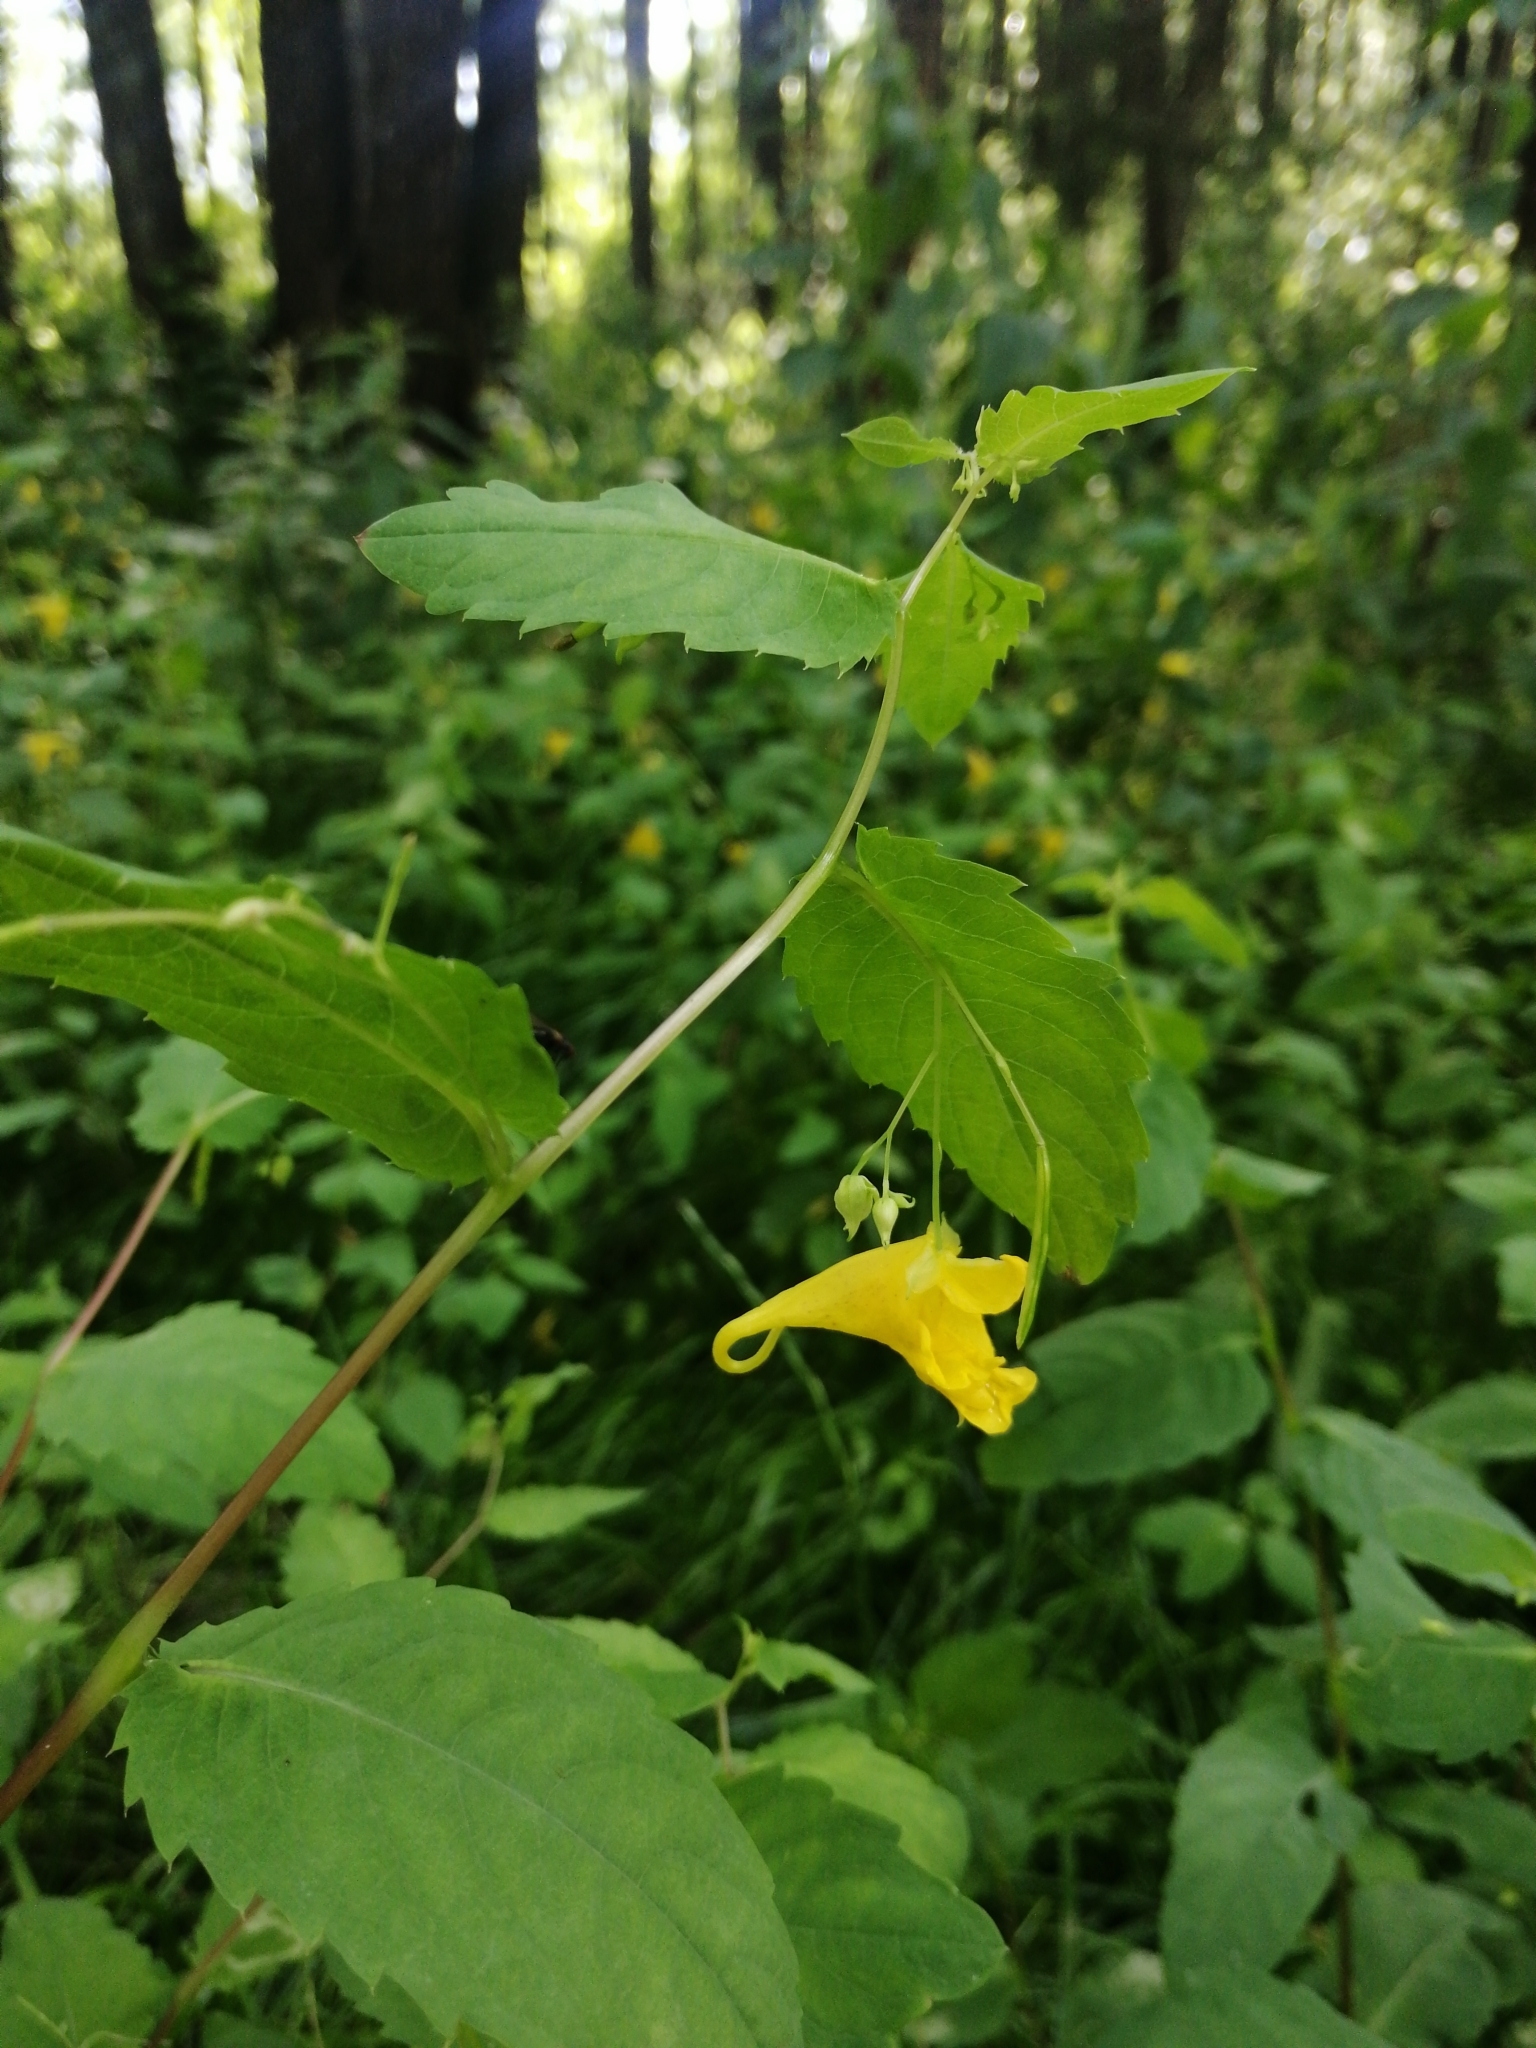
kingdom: Plantae
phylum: Tracheophyta
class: Magnoliopsida
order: Ericales
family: Balsaminaceae
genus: Impatiens
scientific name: Impatiens noli-tangere
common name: Touch-me-not balsam
